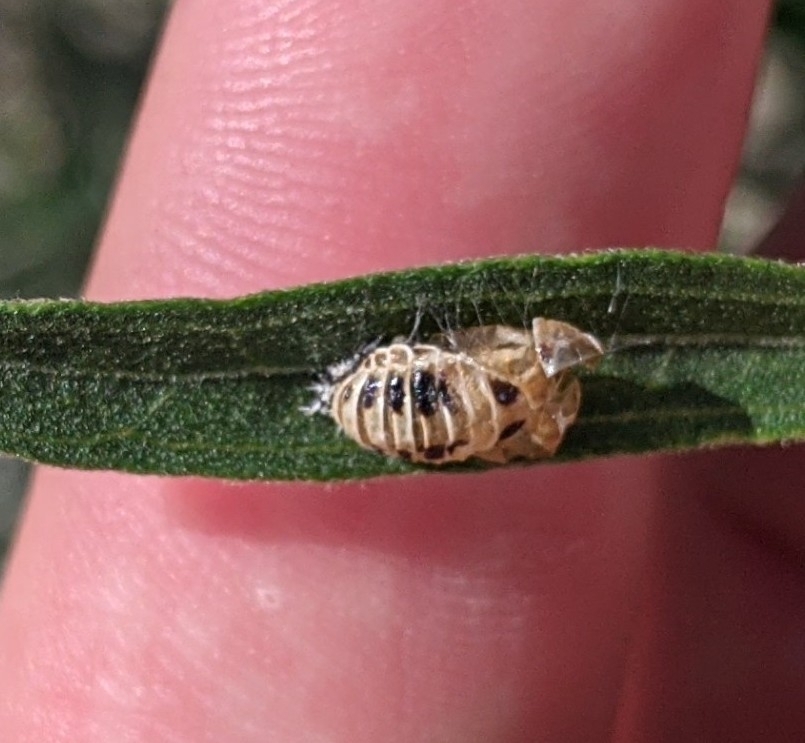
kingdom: Animalia
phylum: Arthropoda
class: Insecta
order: Coleoptera
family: Coccinellidae
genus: Harmonia
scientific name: Harmonia axyridis
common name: Harlequin ladybird
